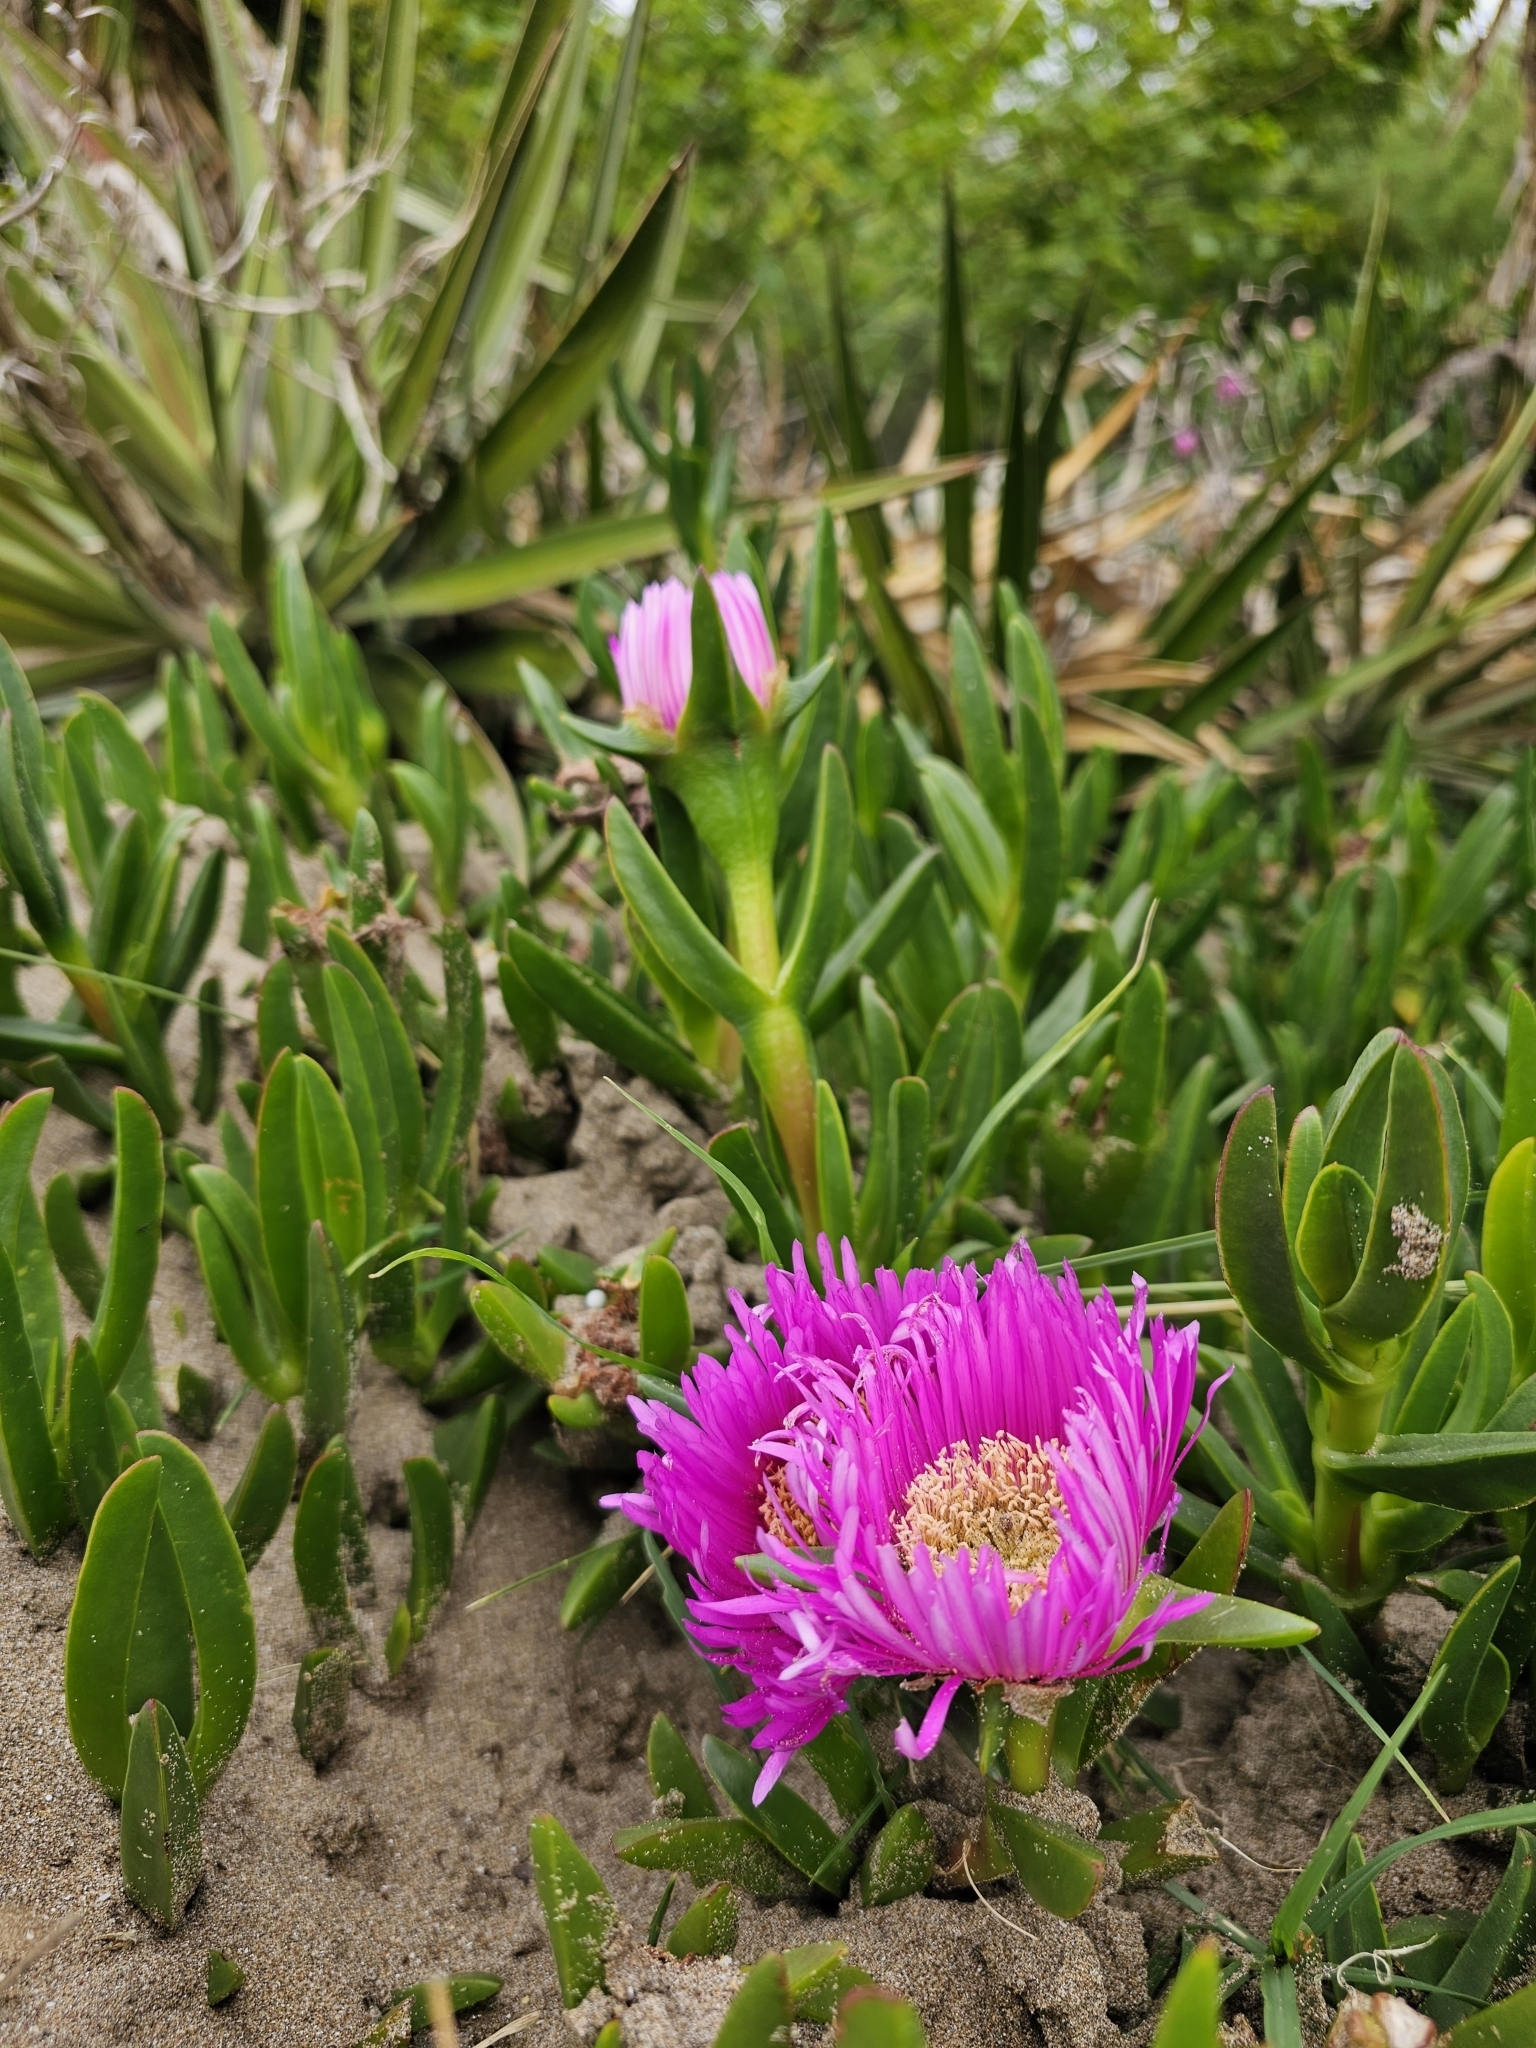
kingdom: Plantae
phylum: Tracheophyta
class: Magnoliopsida
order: Caryophyllales
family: Aizoaceae
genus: Carpobrotus
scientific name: Carpobrotus chilensis
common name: Sea fig
